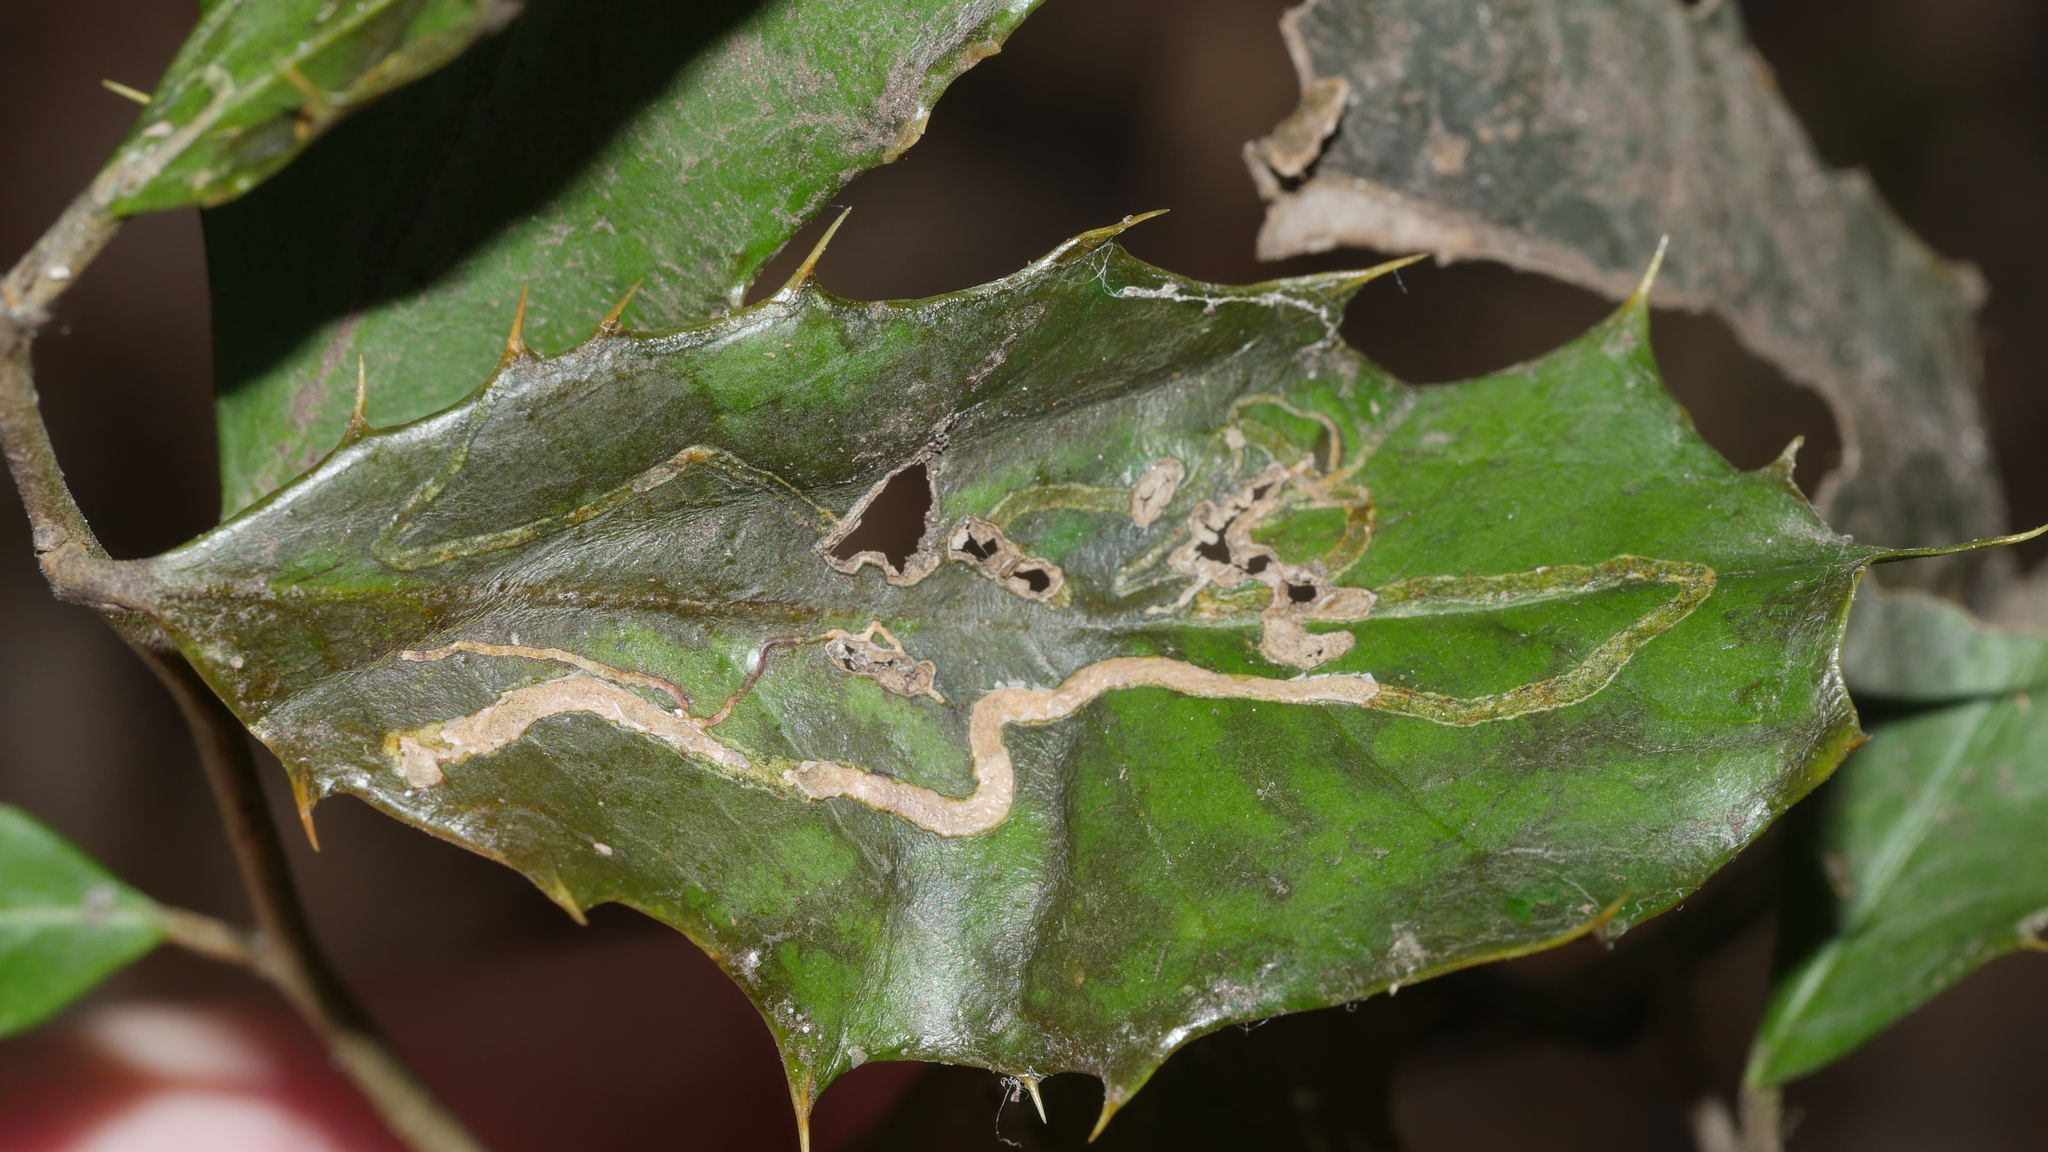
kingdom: Animalia
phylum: Arthropoda
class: Insecta
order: Diptera
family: Agromyzidae
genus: Phytomyza
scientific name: Phytomyza opacae
